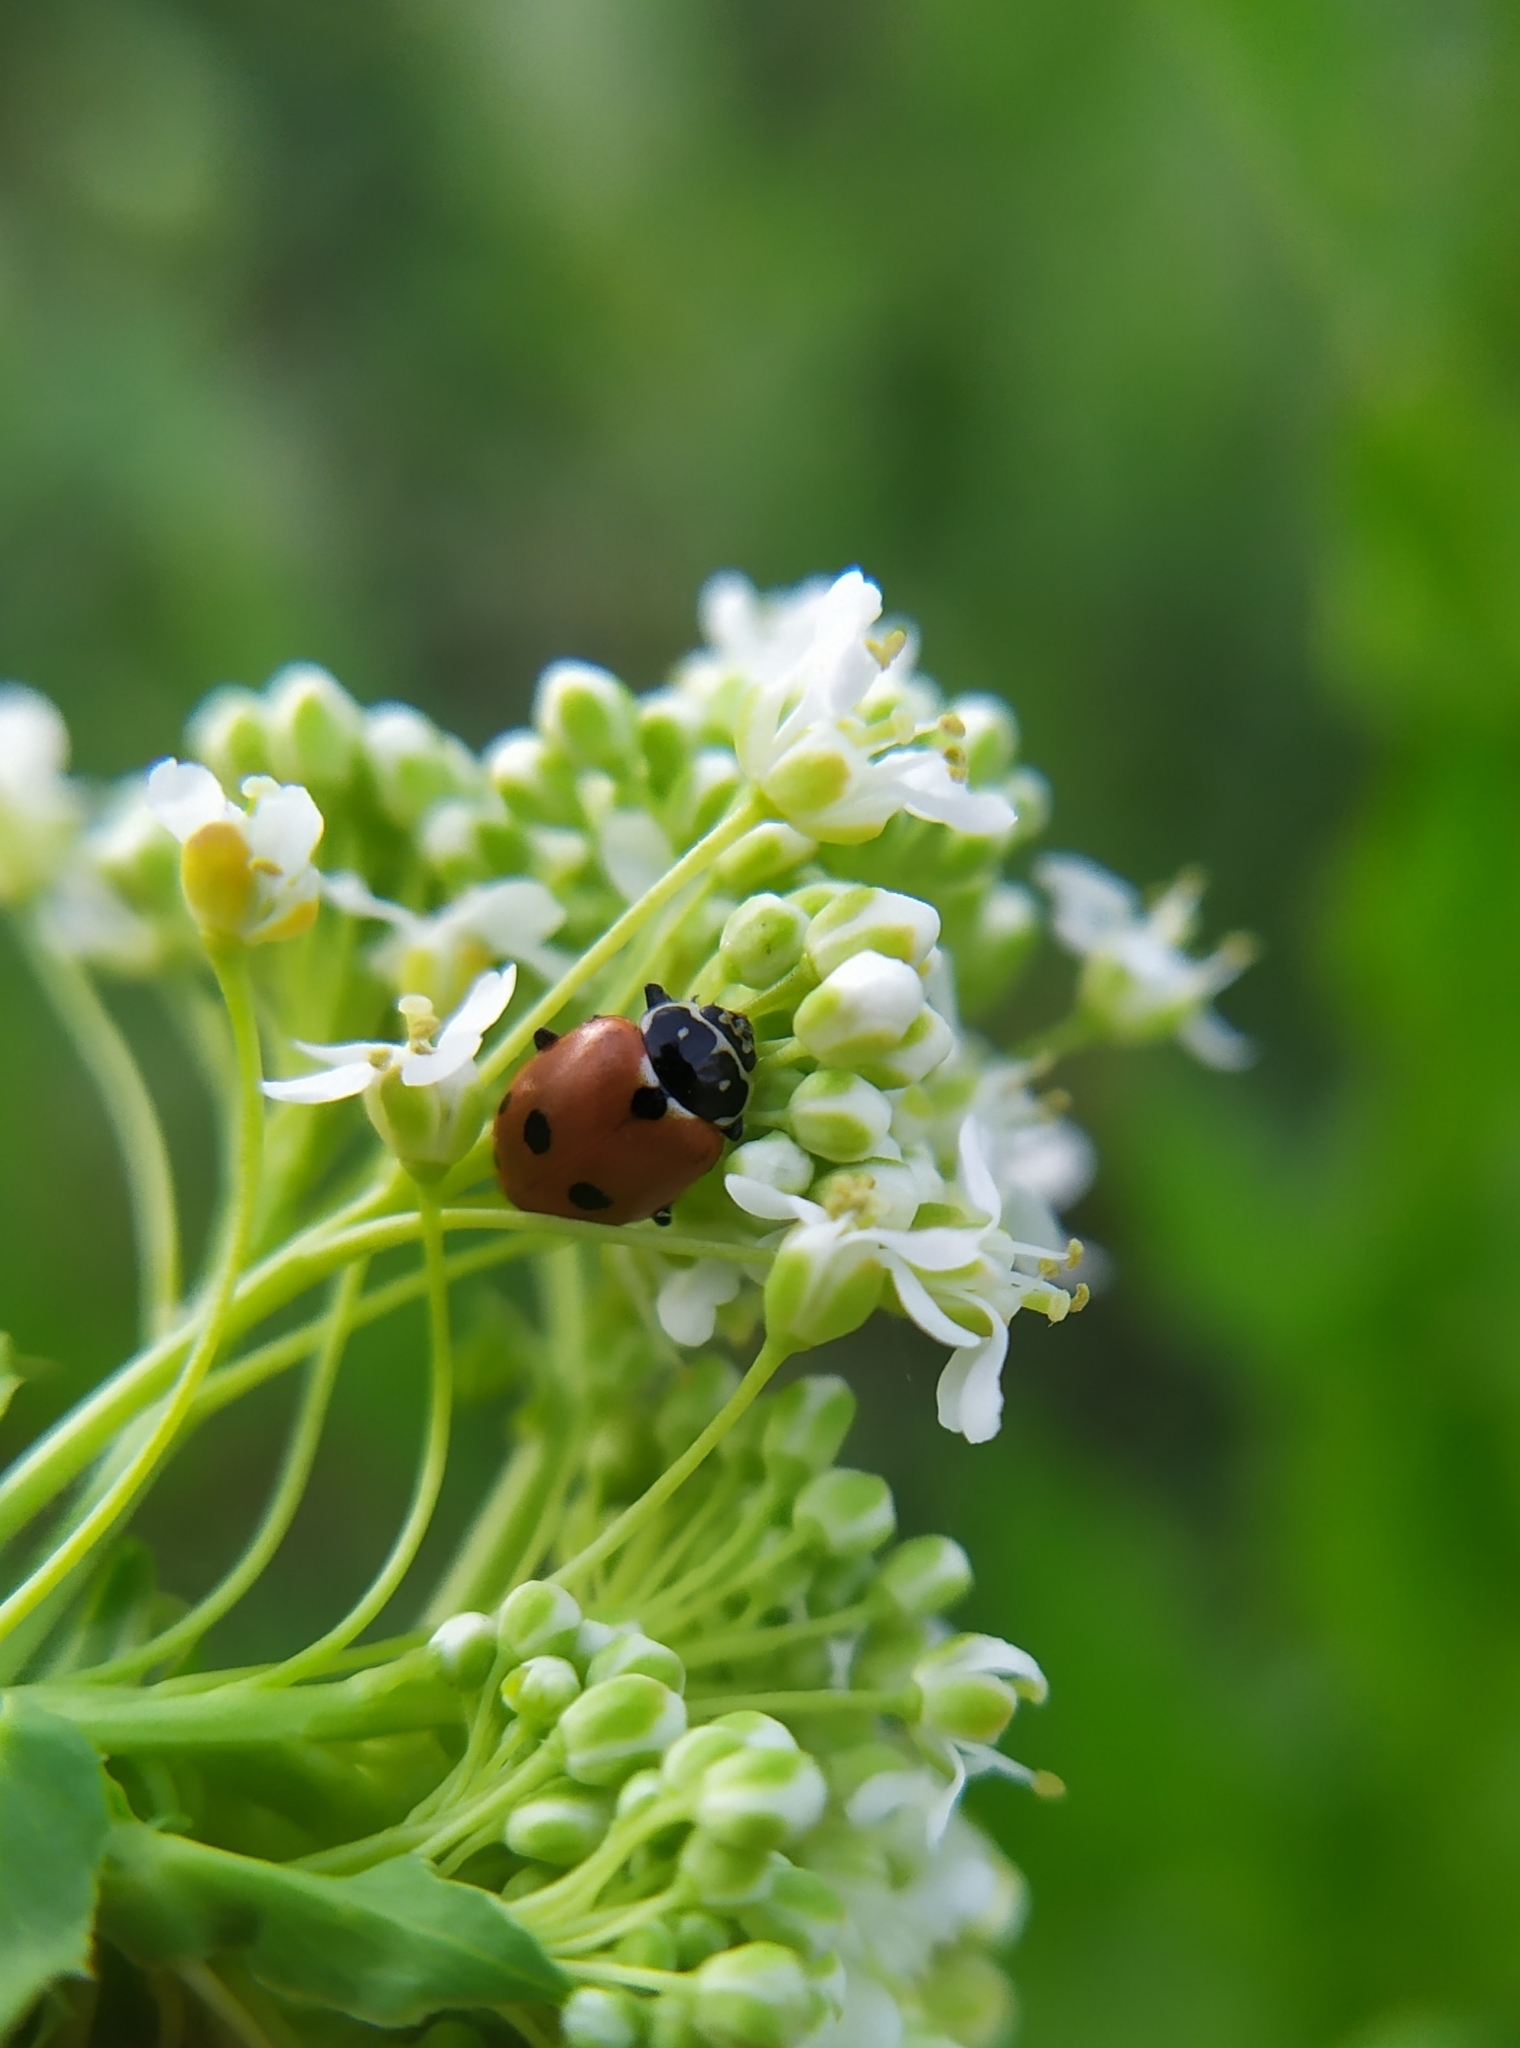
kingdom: Animalia
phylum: Arthropoda
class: Insecta
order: Coleoptera
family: Coccinellidae
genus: Hippodamia
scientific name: Hippodamia variegata
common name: Ladybird beetle
